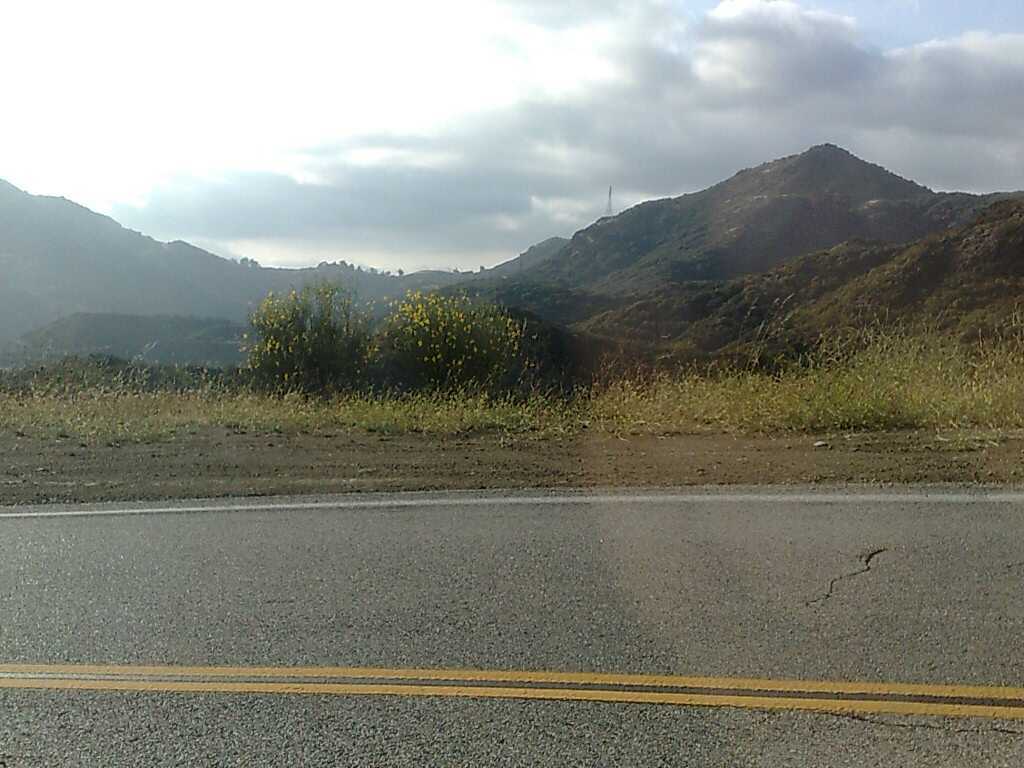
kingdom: Plantae
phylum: Tracheophyta
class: Magnoliopsida
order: Fabales
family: Fabaceae
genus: Spartium
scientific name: Spartium junceum
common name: Spanish broom
